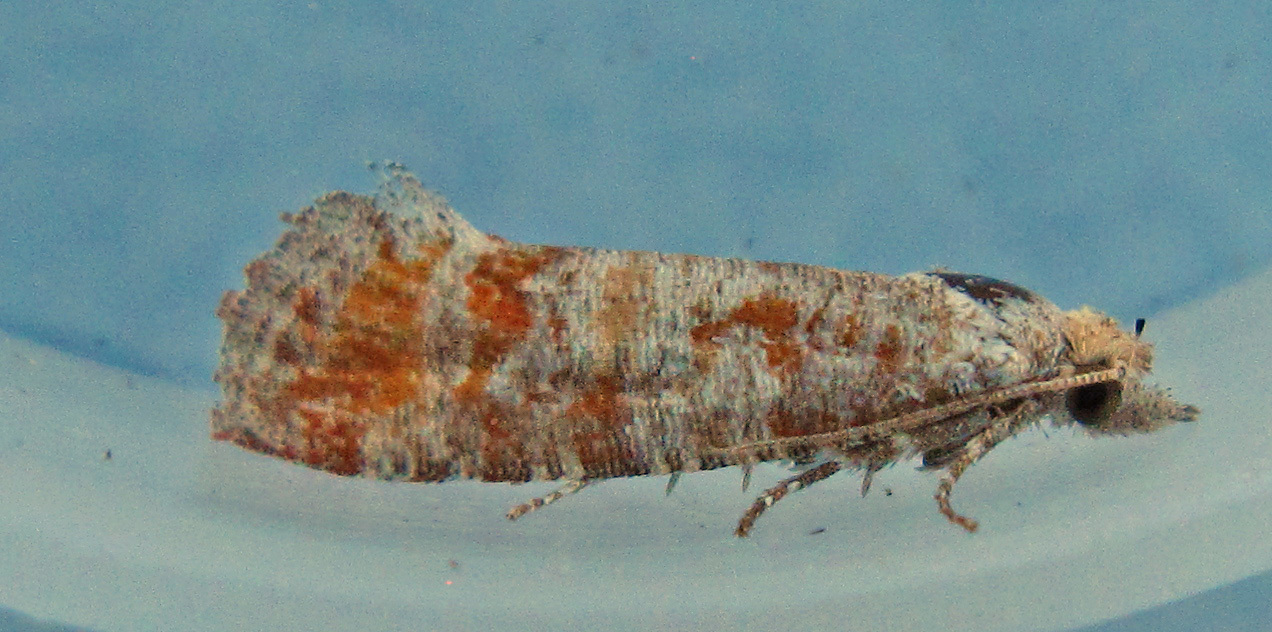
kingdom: Animalia
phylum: Arthropoda
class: Insecta
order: Lepidoptera
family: Tortricidae
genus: Rhyacionia
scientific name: Rhyacionia rigidana
